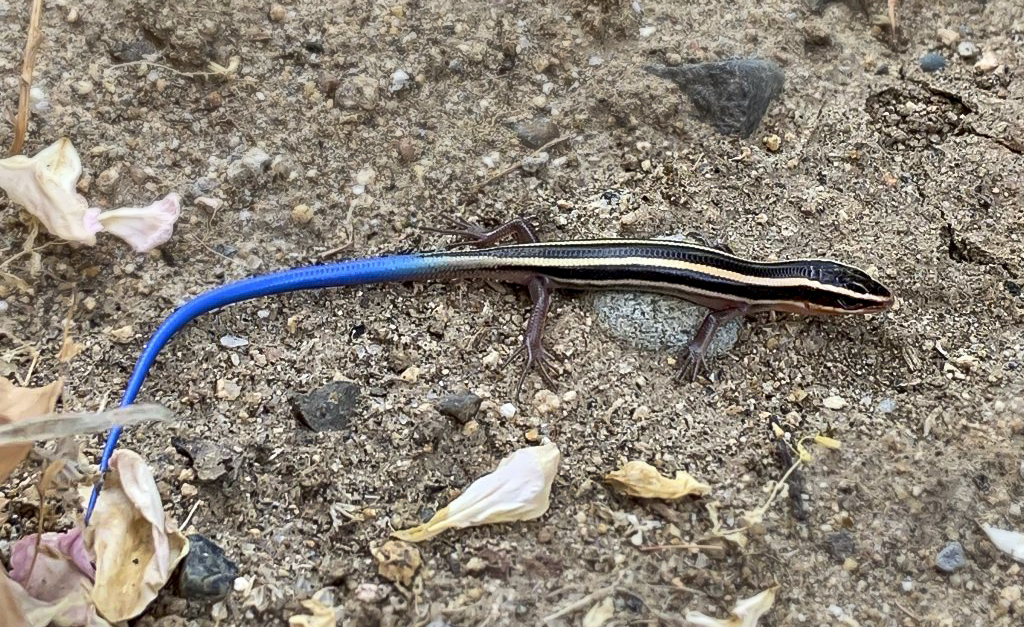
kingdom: Animalia
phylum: Chordata
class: Squamata
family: Scincidae
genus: Plestiodon
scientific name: Plestiodon gilberti
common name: Gilbert's skink
